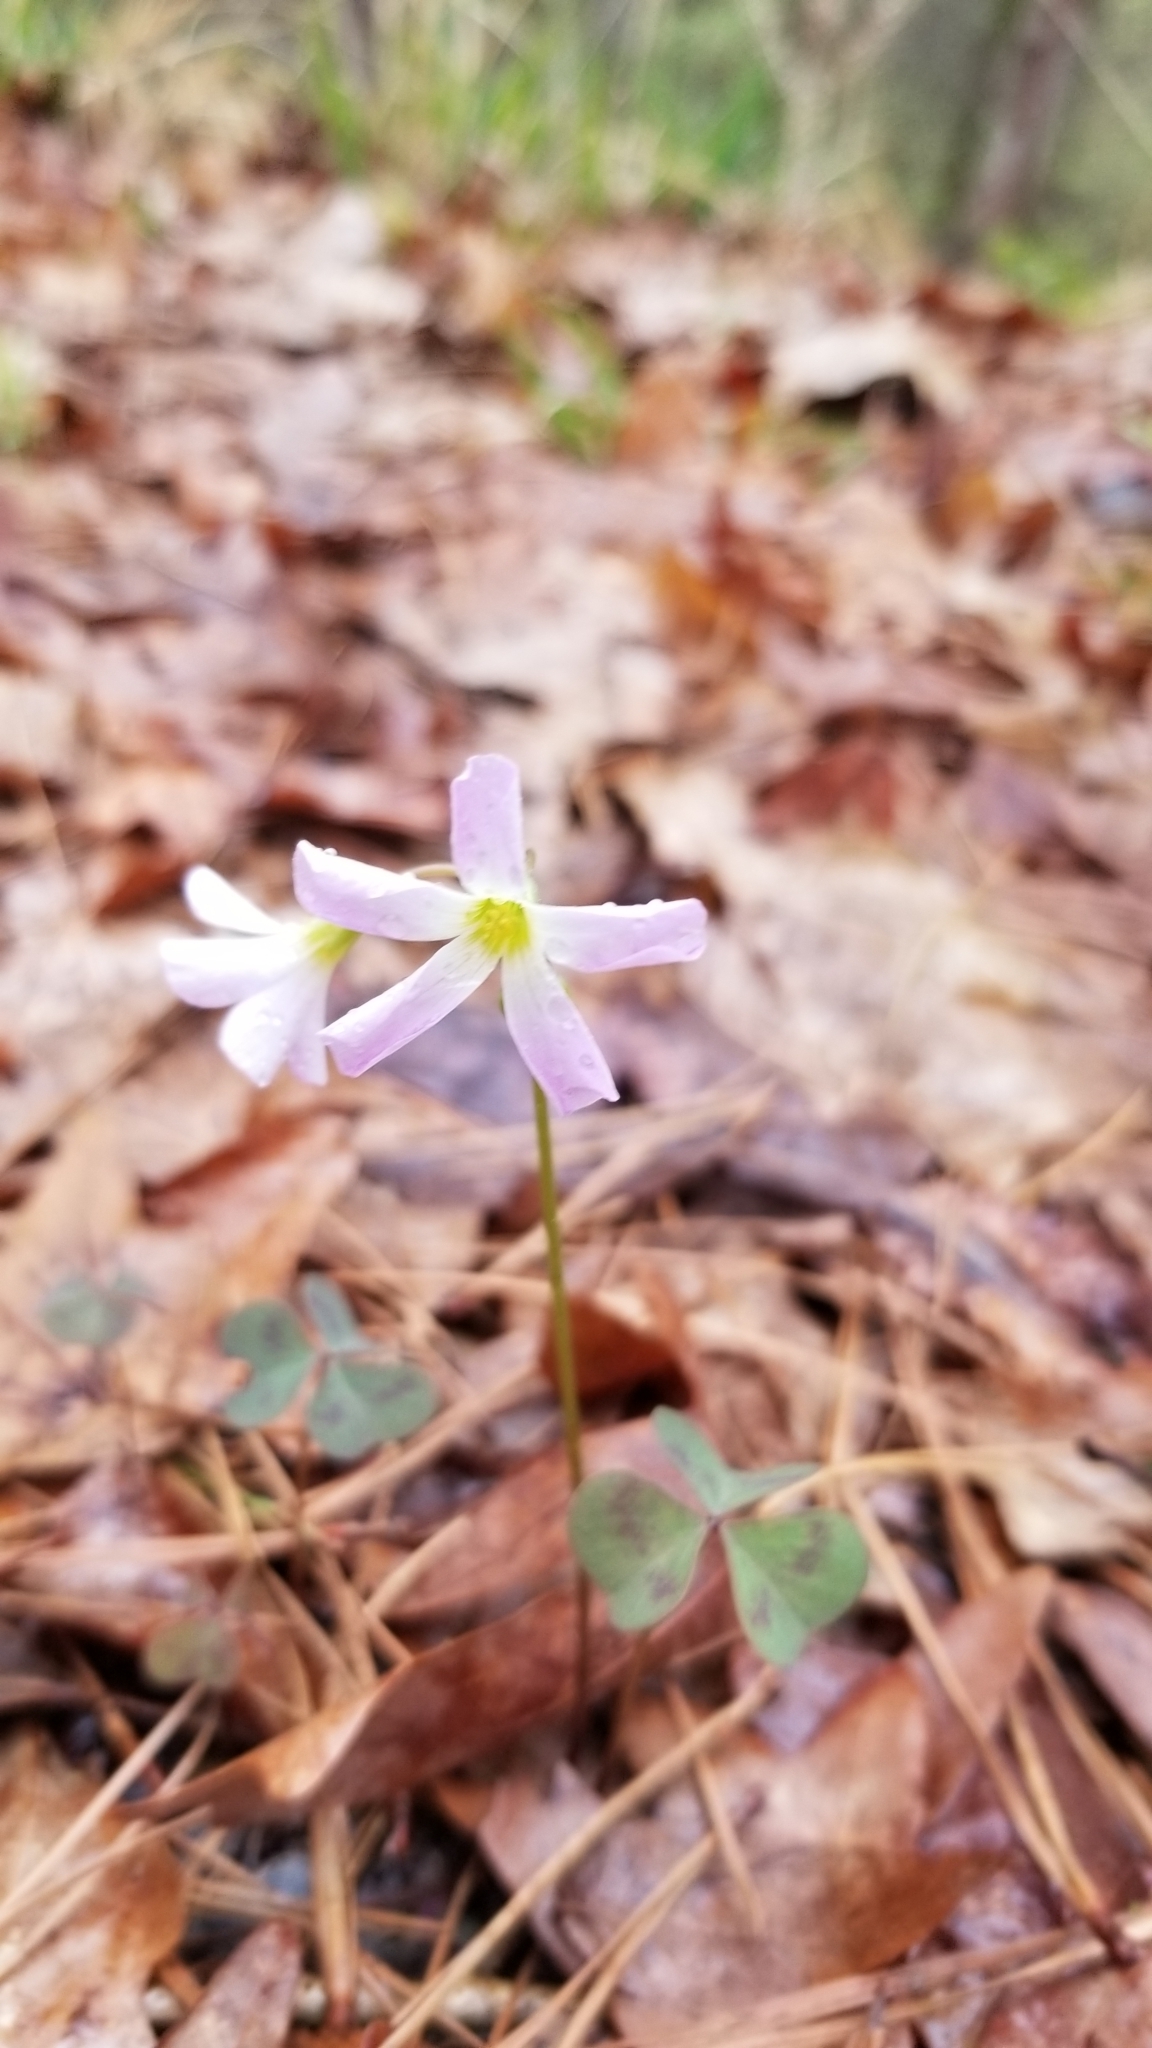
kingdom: Plantae
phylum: Tracheophyta
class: Magnoliopsida
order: Oxalidales
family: Oxalidaceae
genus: Oxalis
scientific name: Oxalis violacea
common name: Violet wood-sorrel
